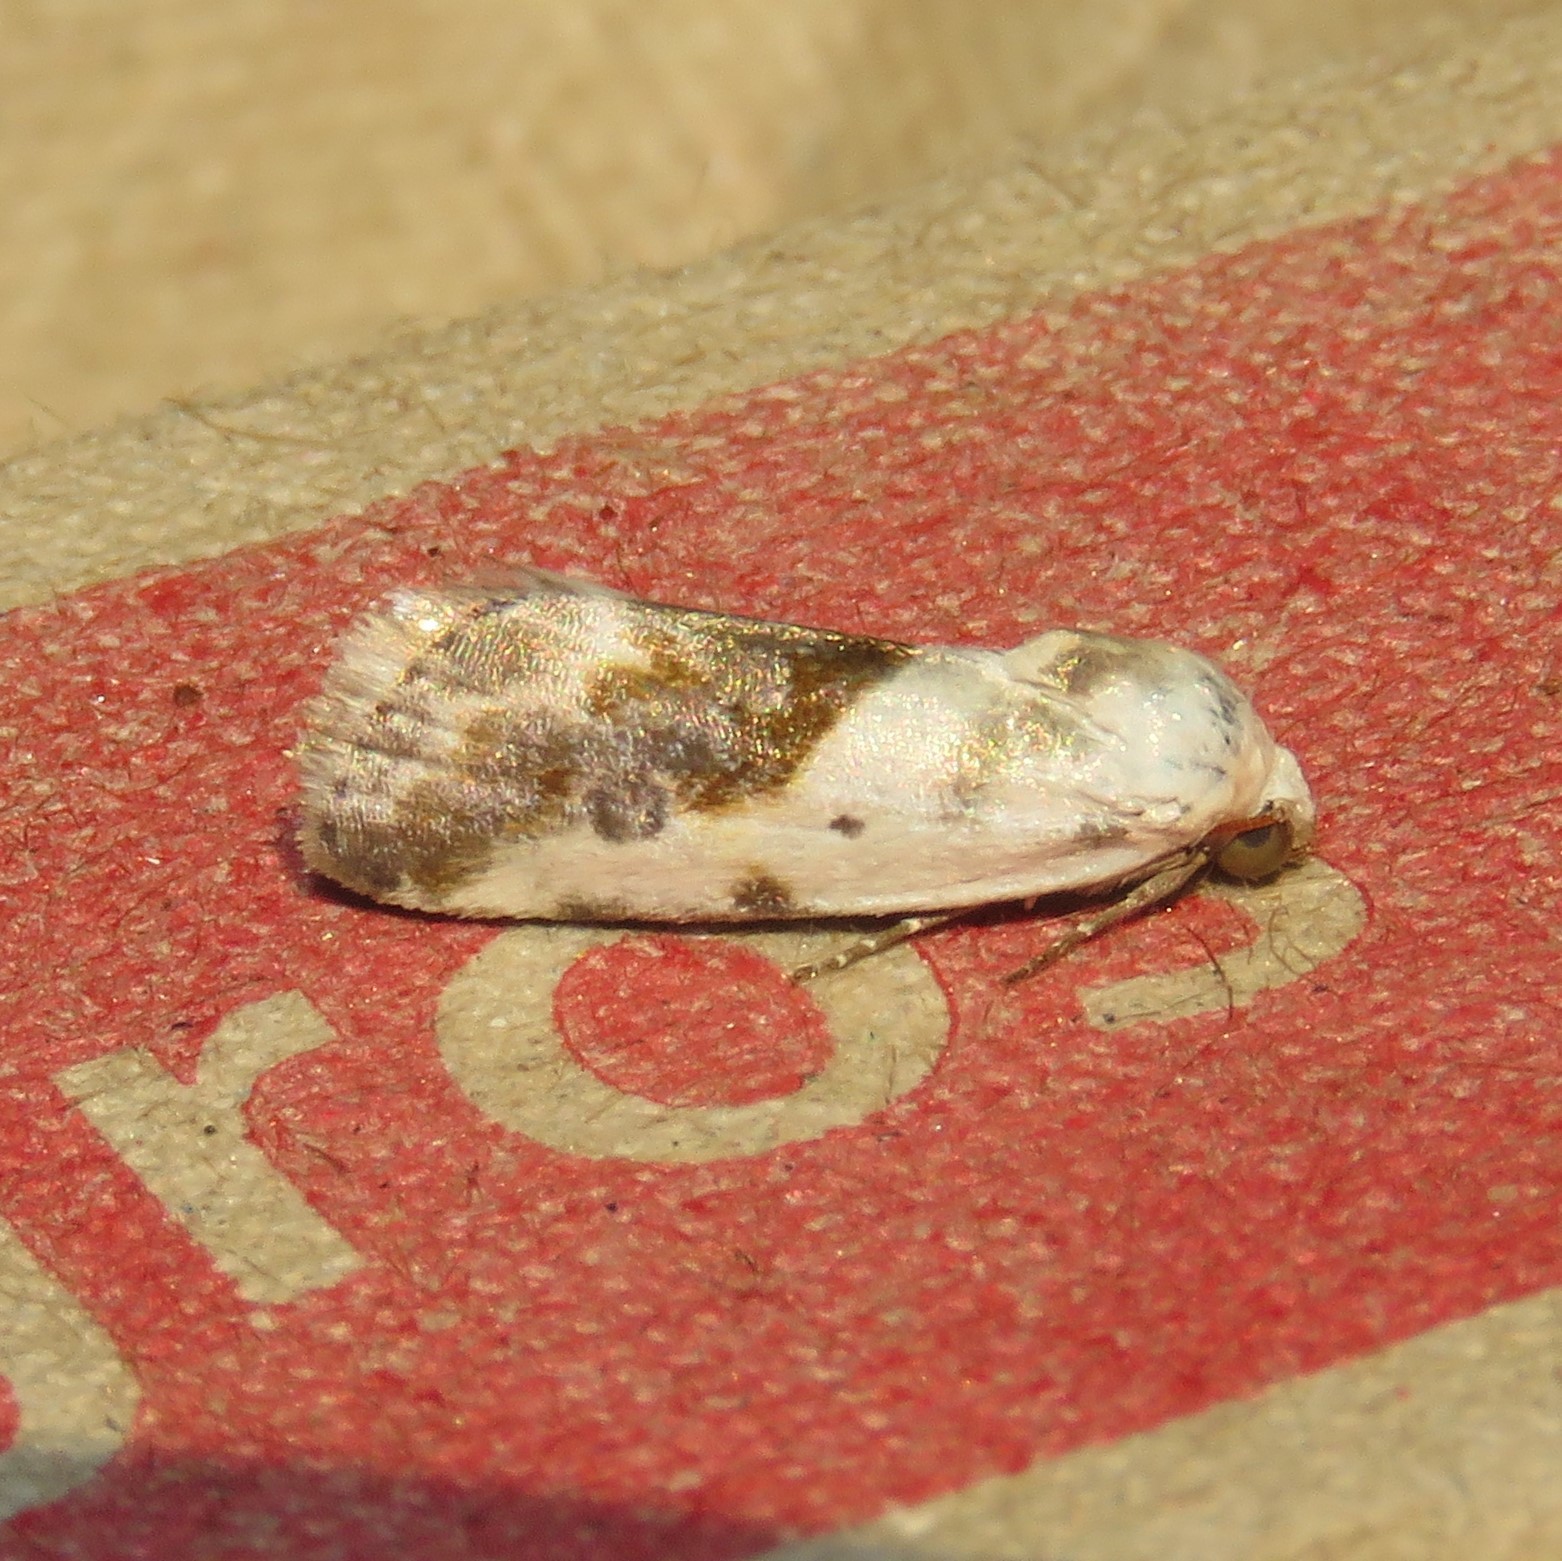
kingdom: Animalia
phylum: Arthropoda
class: Insecta
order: Lepidoptera
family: Noctuidae
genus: Acontia
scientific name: Acontia candefacta
